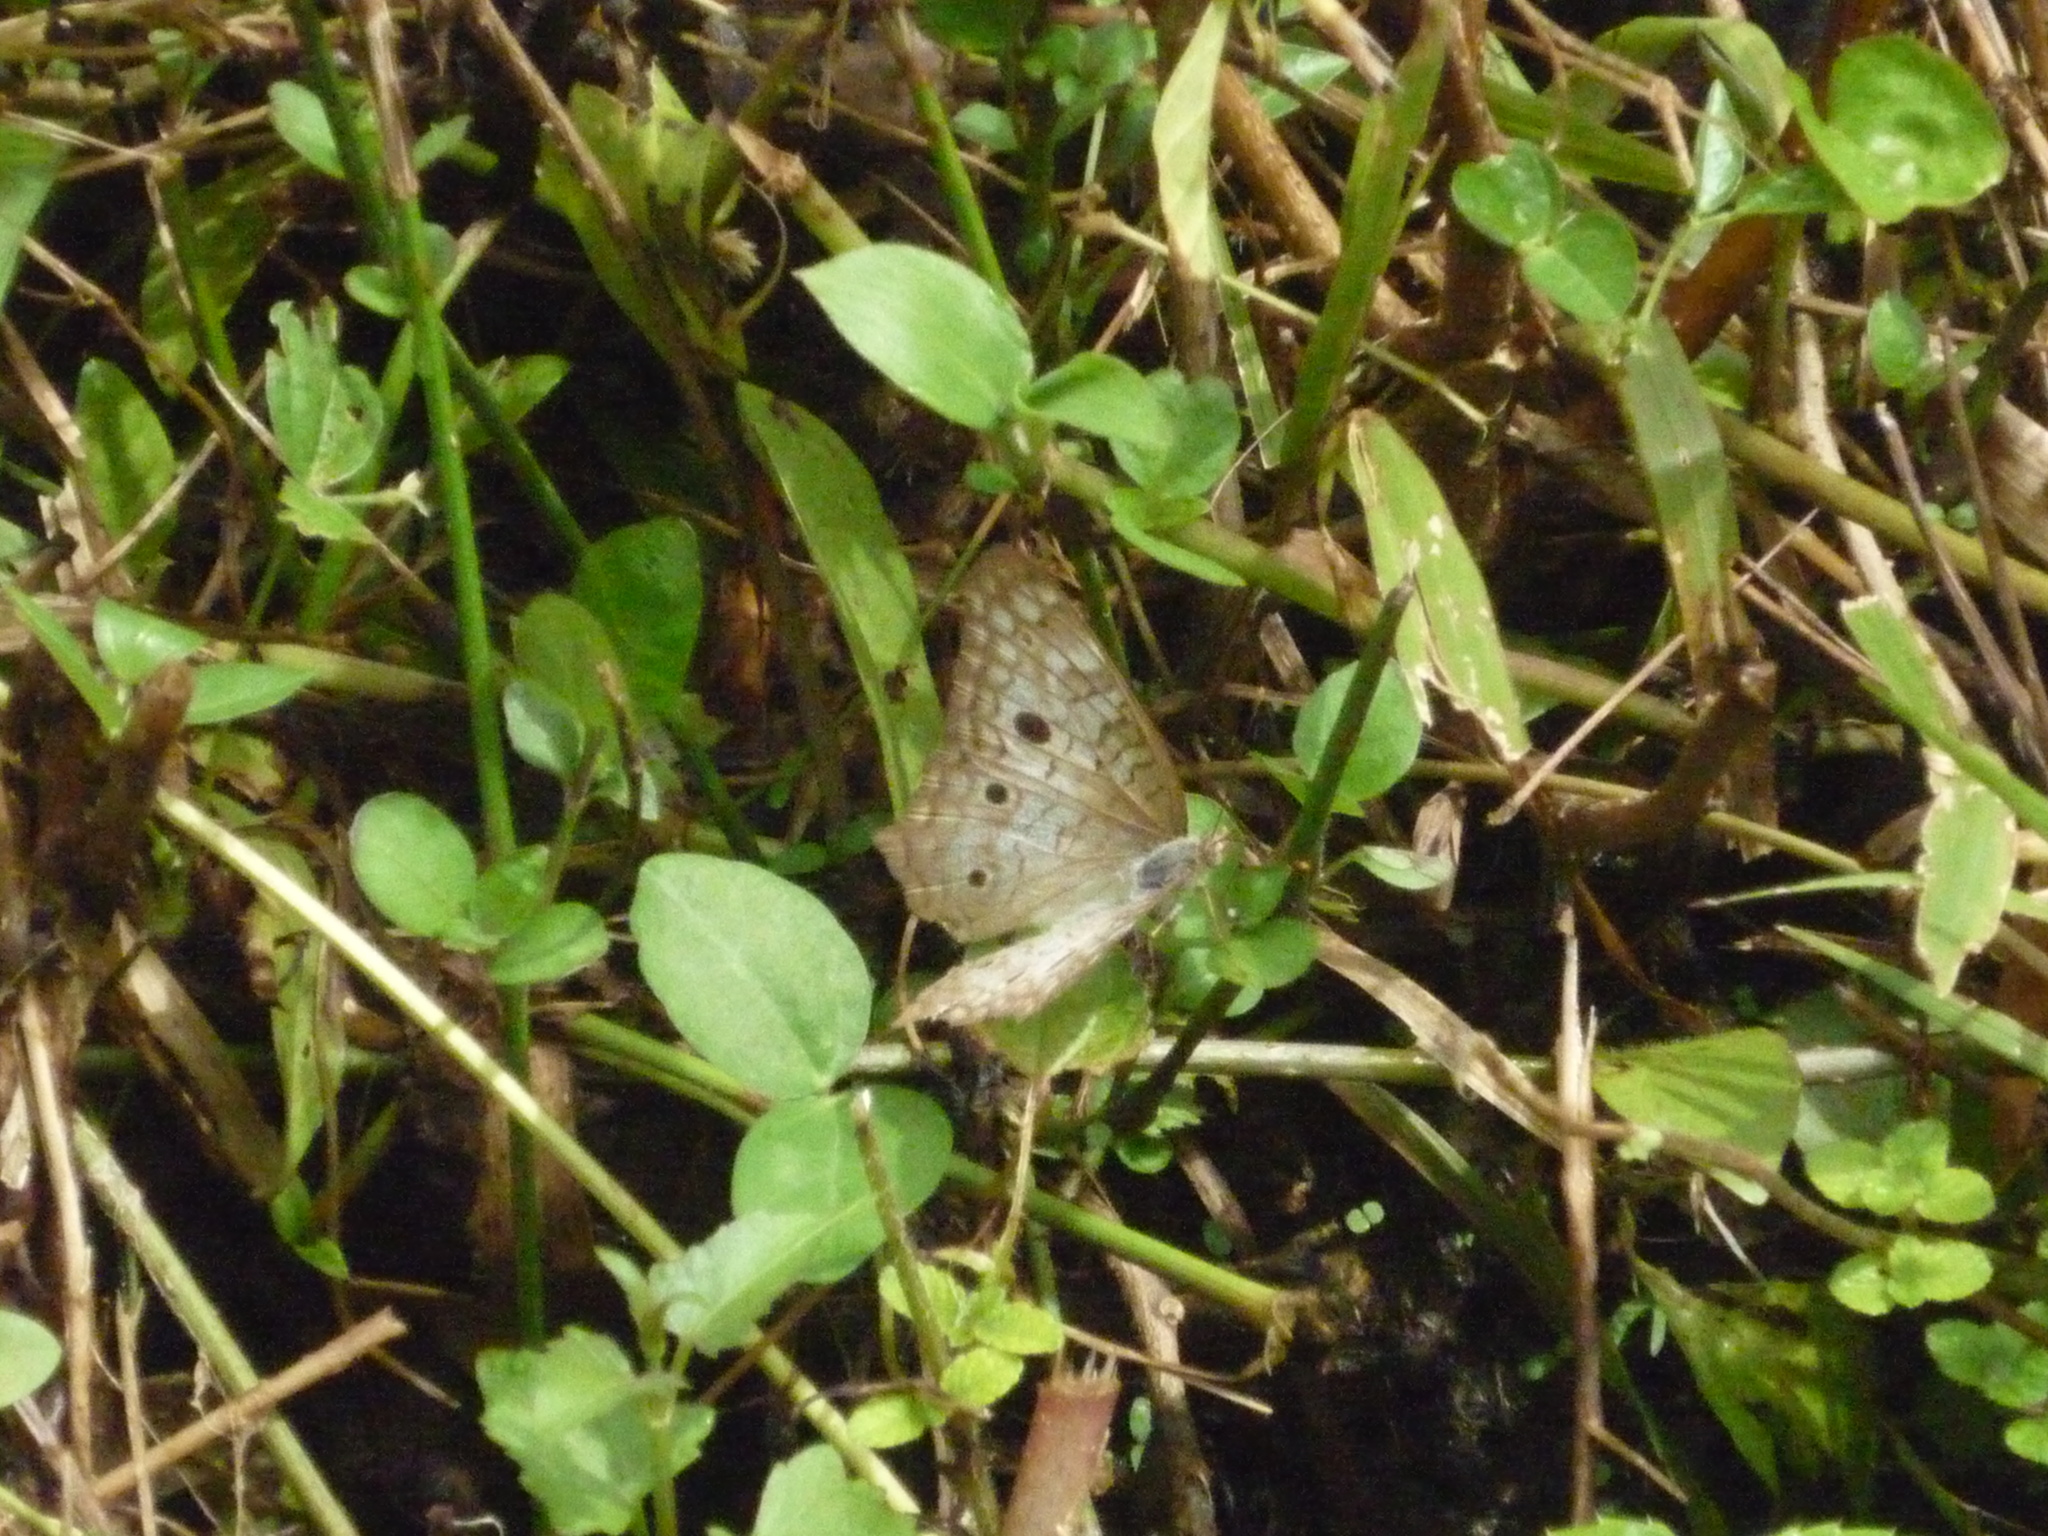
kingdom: Animalia
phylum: Arthropoda
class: Insecta
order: Lepidoptera
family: Nymphalidae
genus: Anartia
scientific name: Anartia jatrophae
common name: White peacock
